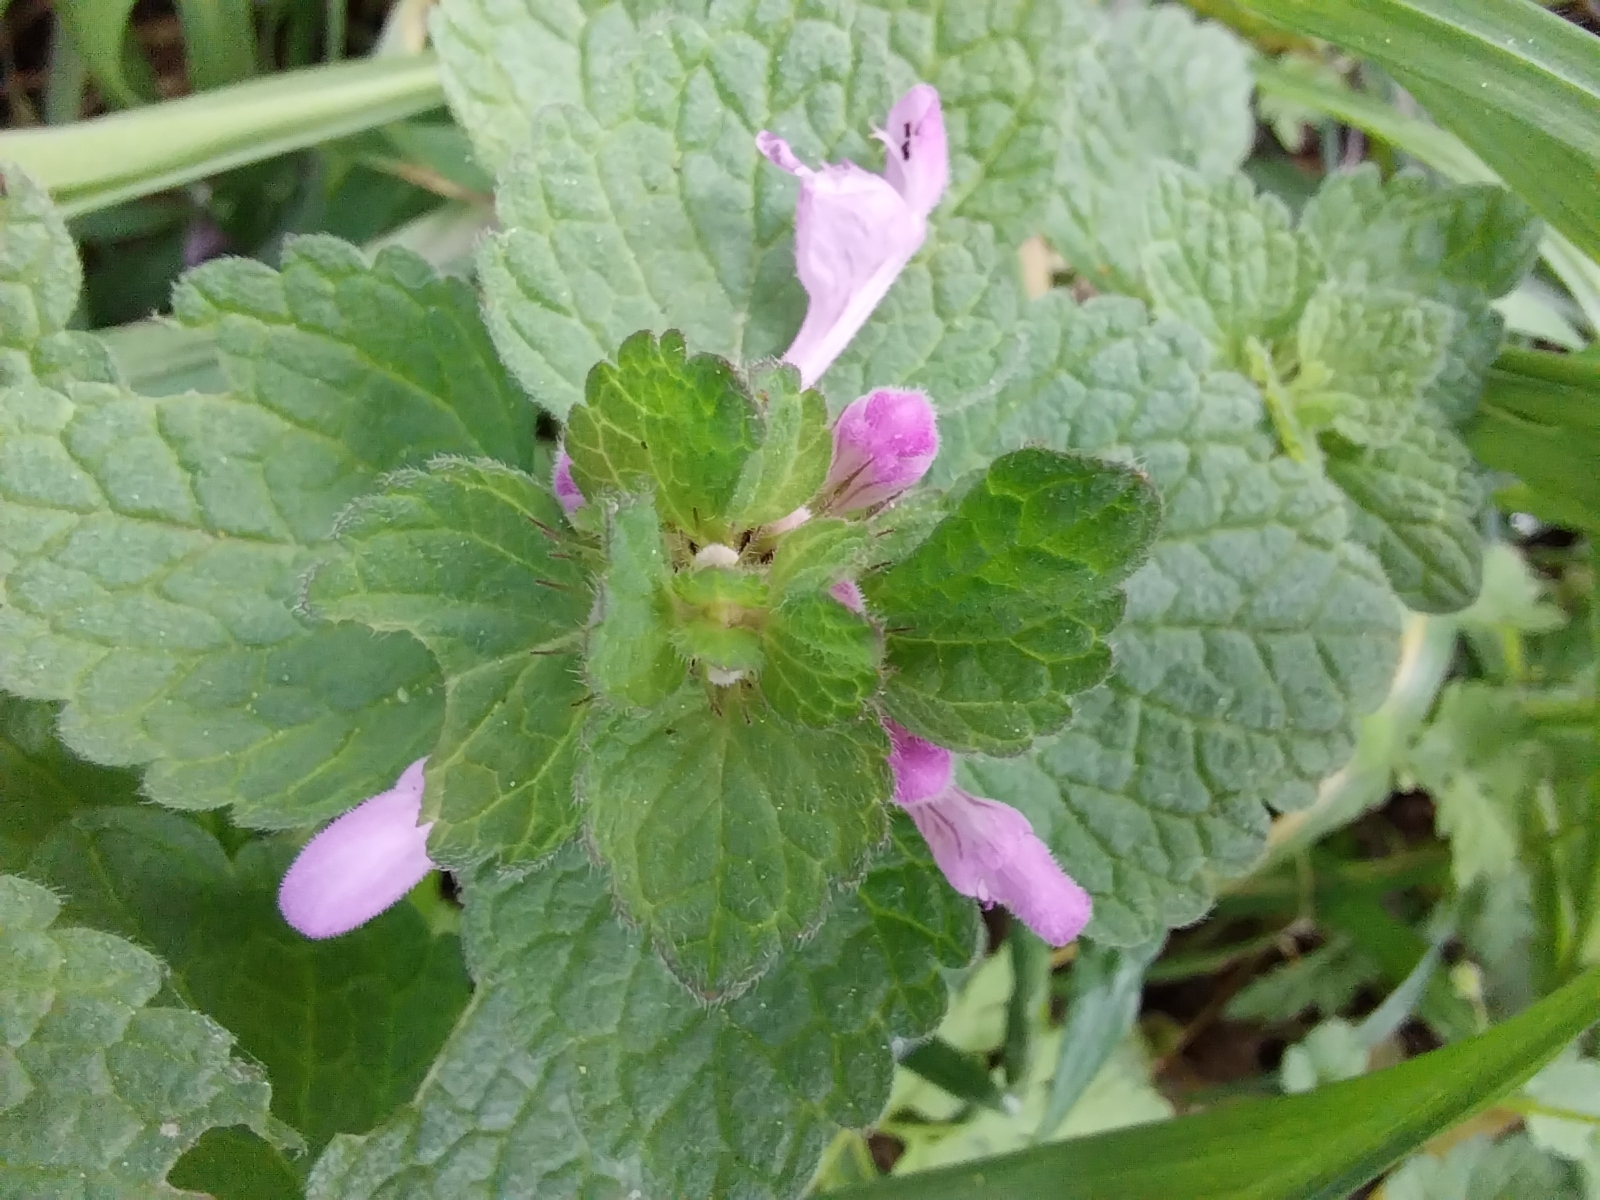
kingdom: Plantae
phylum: Tracheophyta
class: Magnoliopsida
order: Lamiales
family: Lamiaceae
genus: Lamium
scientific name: Lamium purpureum
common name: Red dead-nettle
